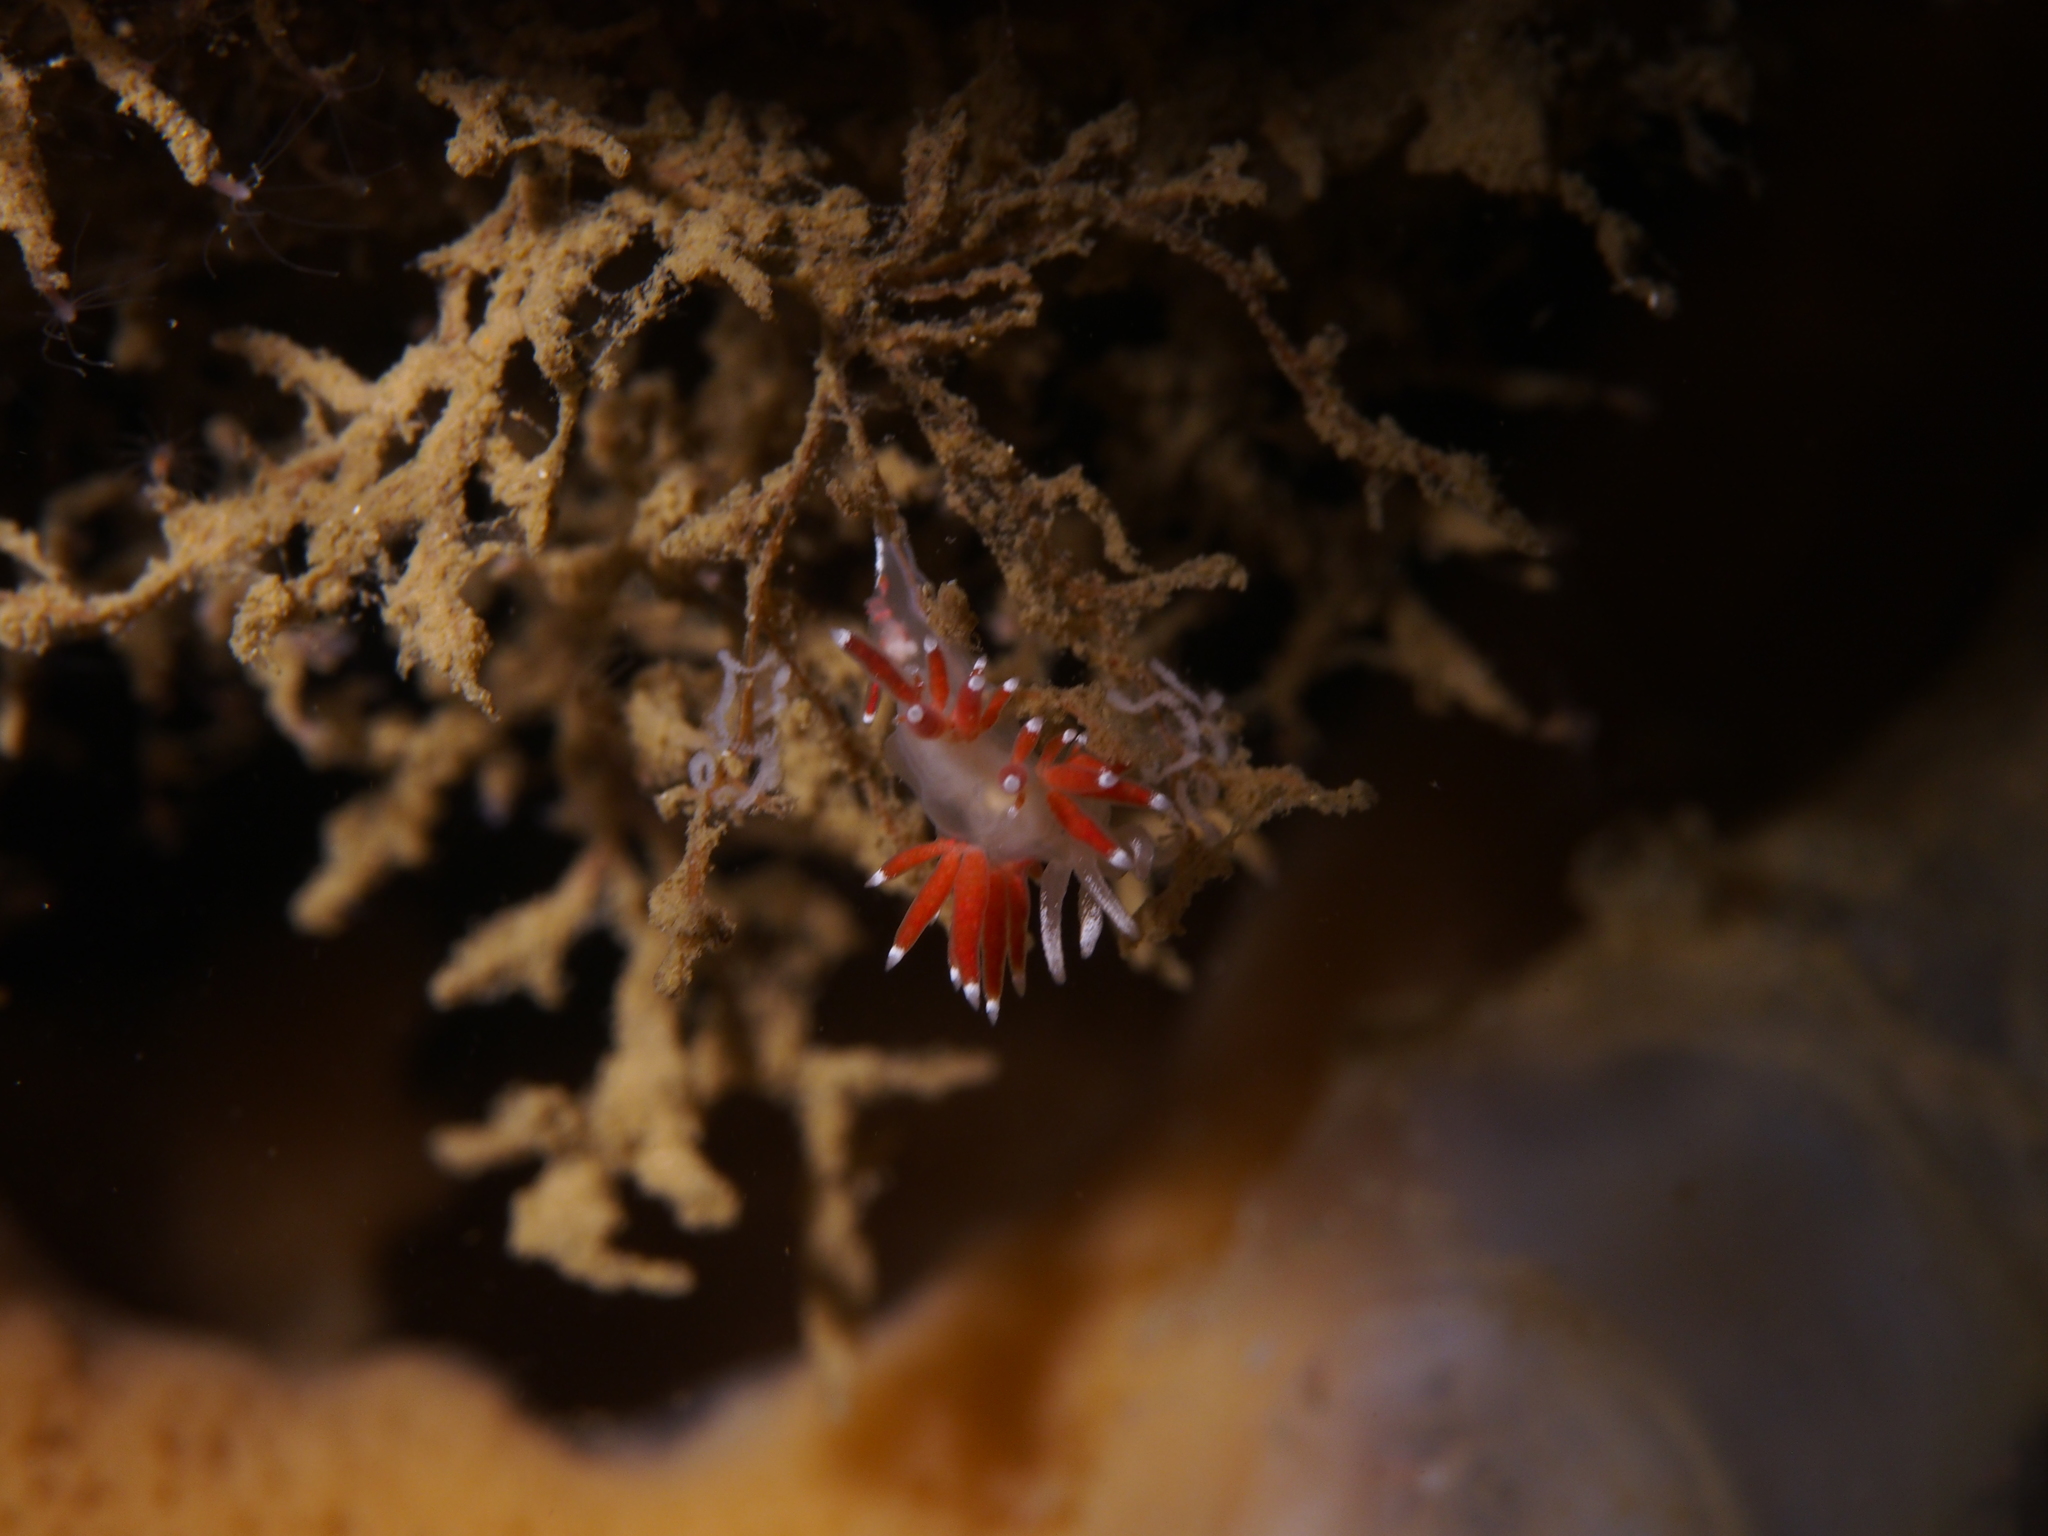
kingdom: Animalia
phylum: Mollusca
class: Gastropoda
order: Nudibranchia
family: Coryphellidae
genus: Coryphella
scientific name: Coryphella gracilis
